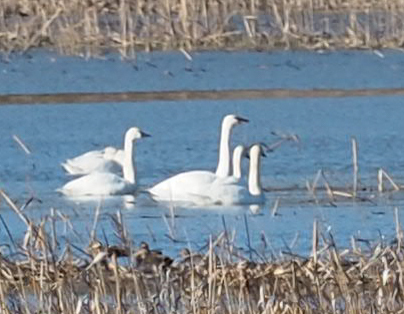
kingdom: Animalia
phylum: Chordata
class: Aves
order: Anseriformes
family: Anatidae
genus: Cygnus
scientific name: Cygnus columbianus
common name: Tundra swan
